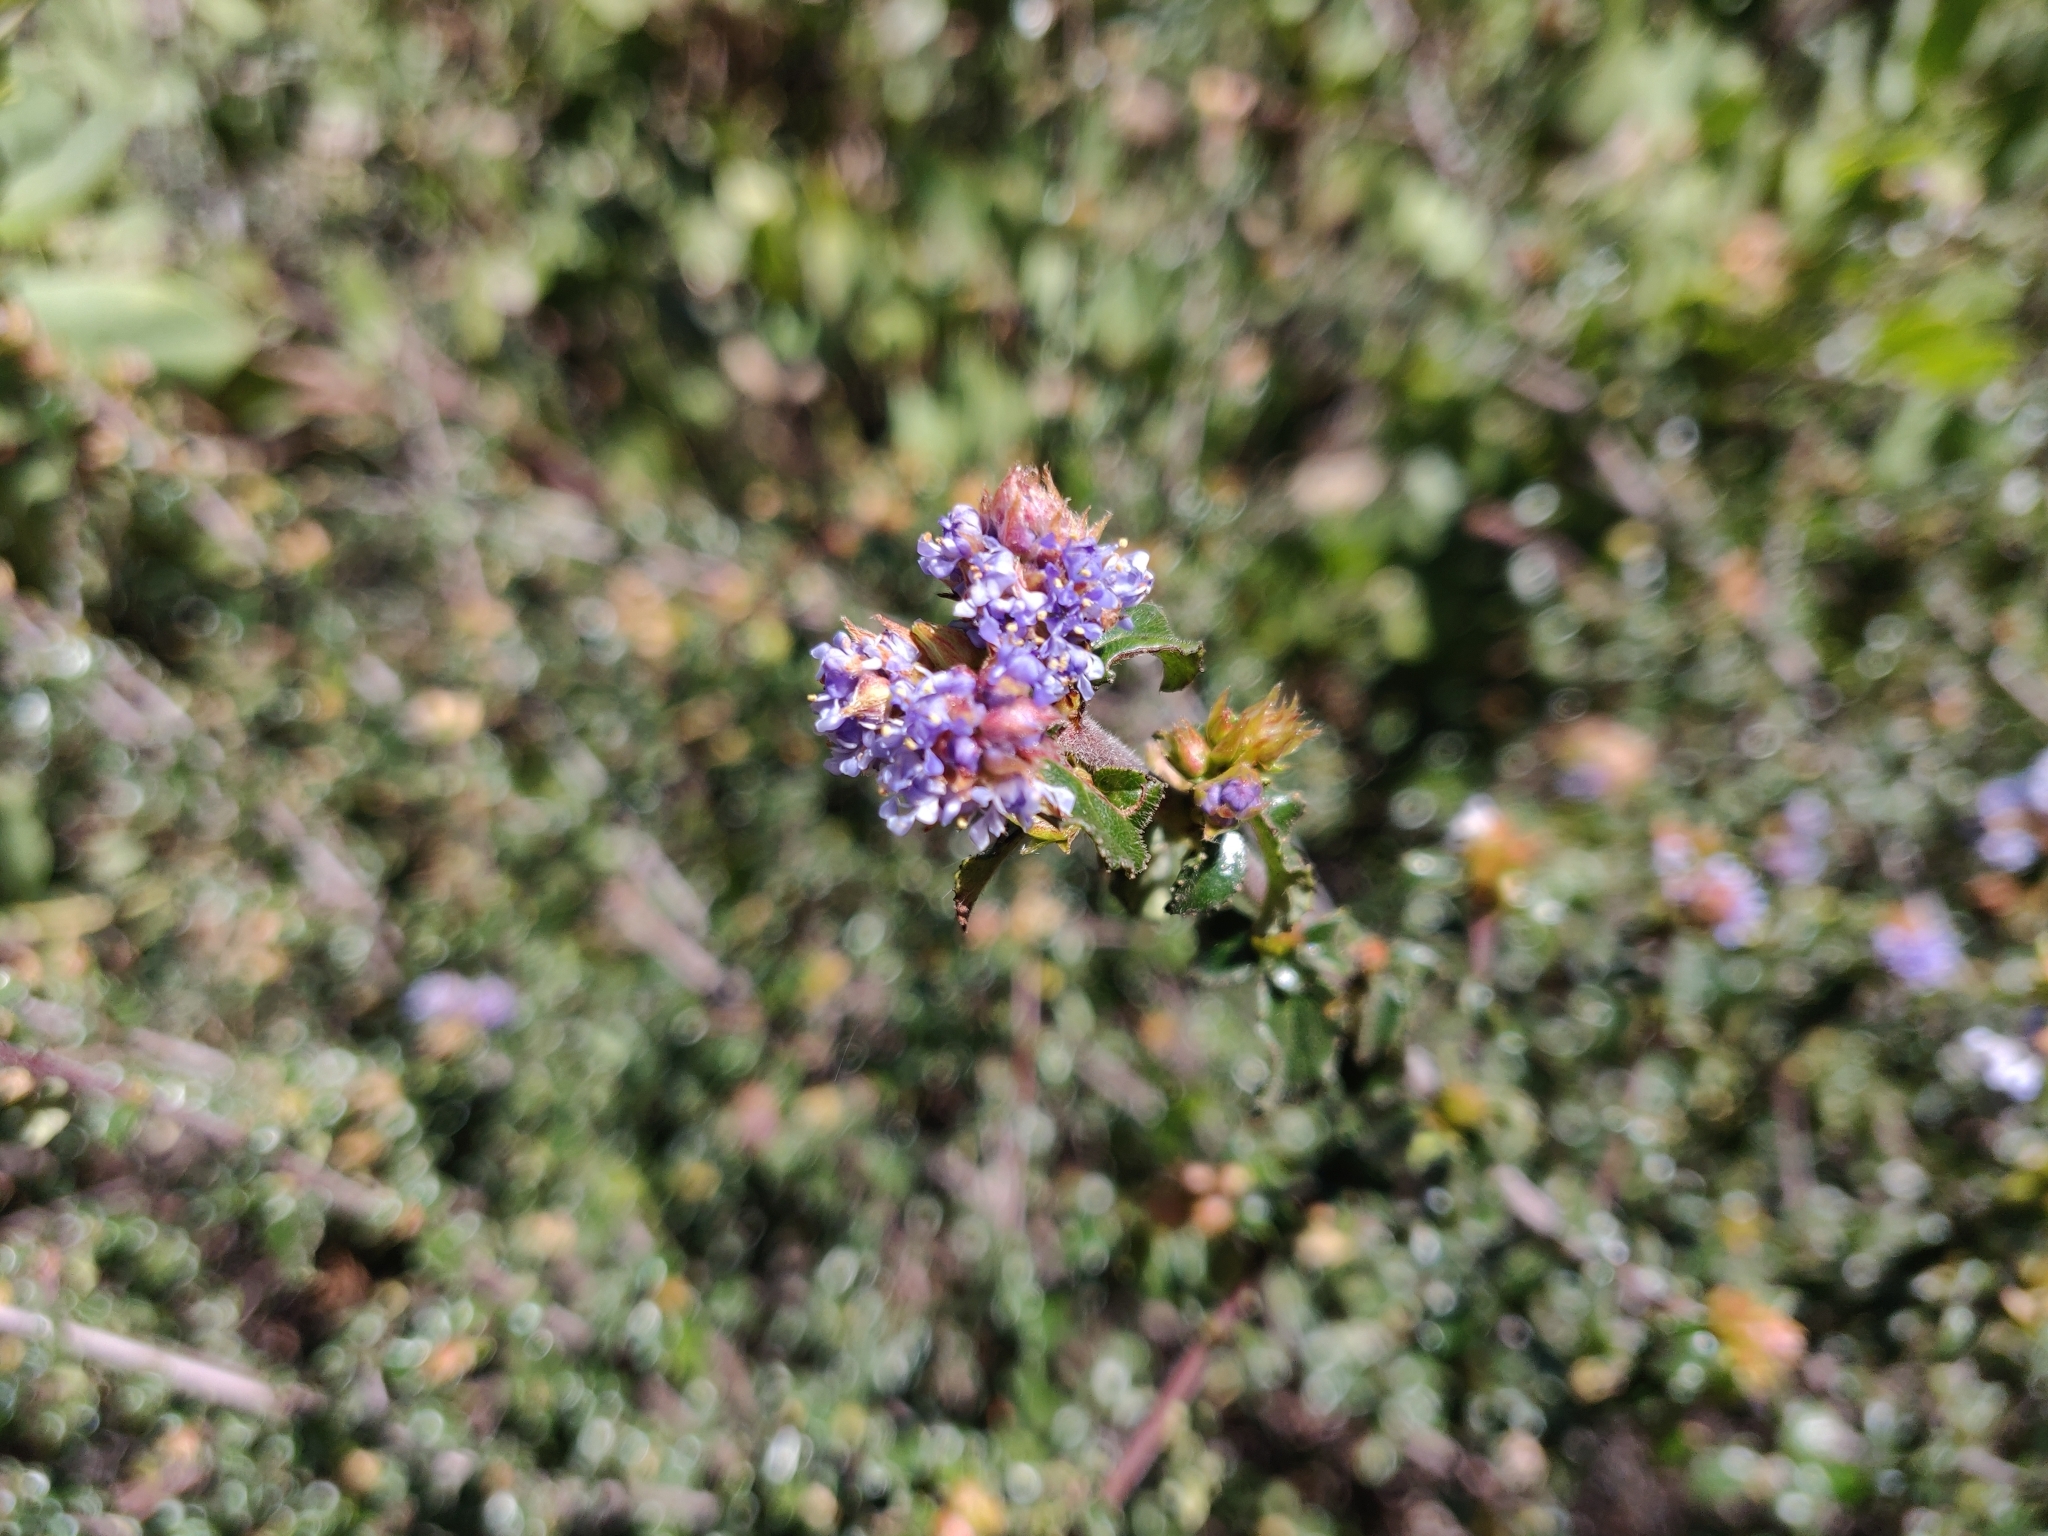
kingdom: Plantae
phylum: Tracheophyta
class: Magnoliopsida
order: Rosales
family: Rhamnaceae
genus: Ceanothus
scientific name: Ceanothus foliosus
